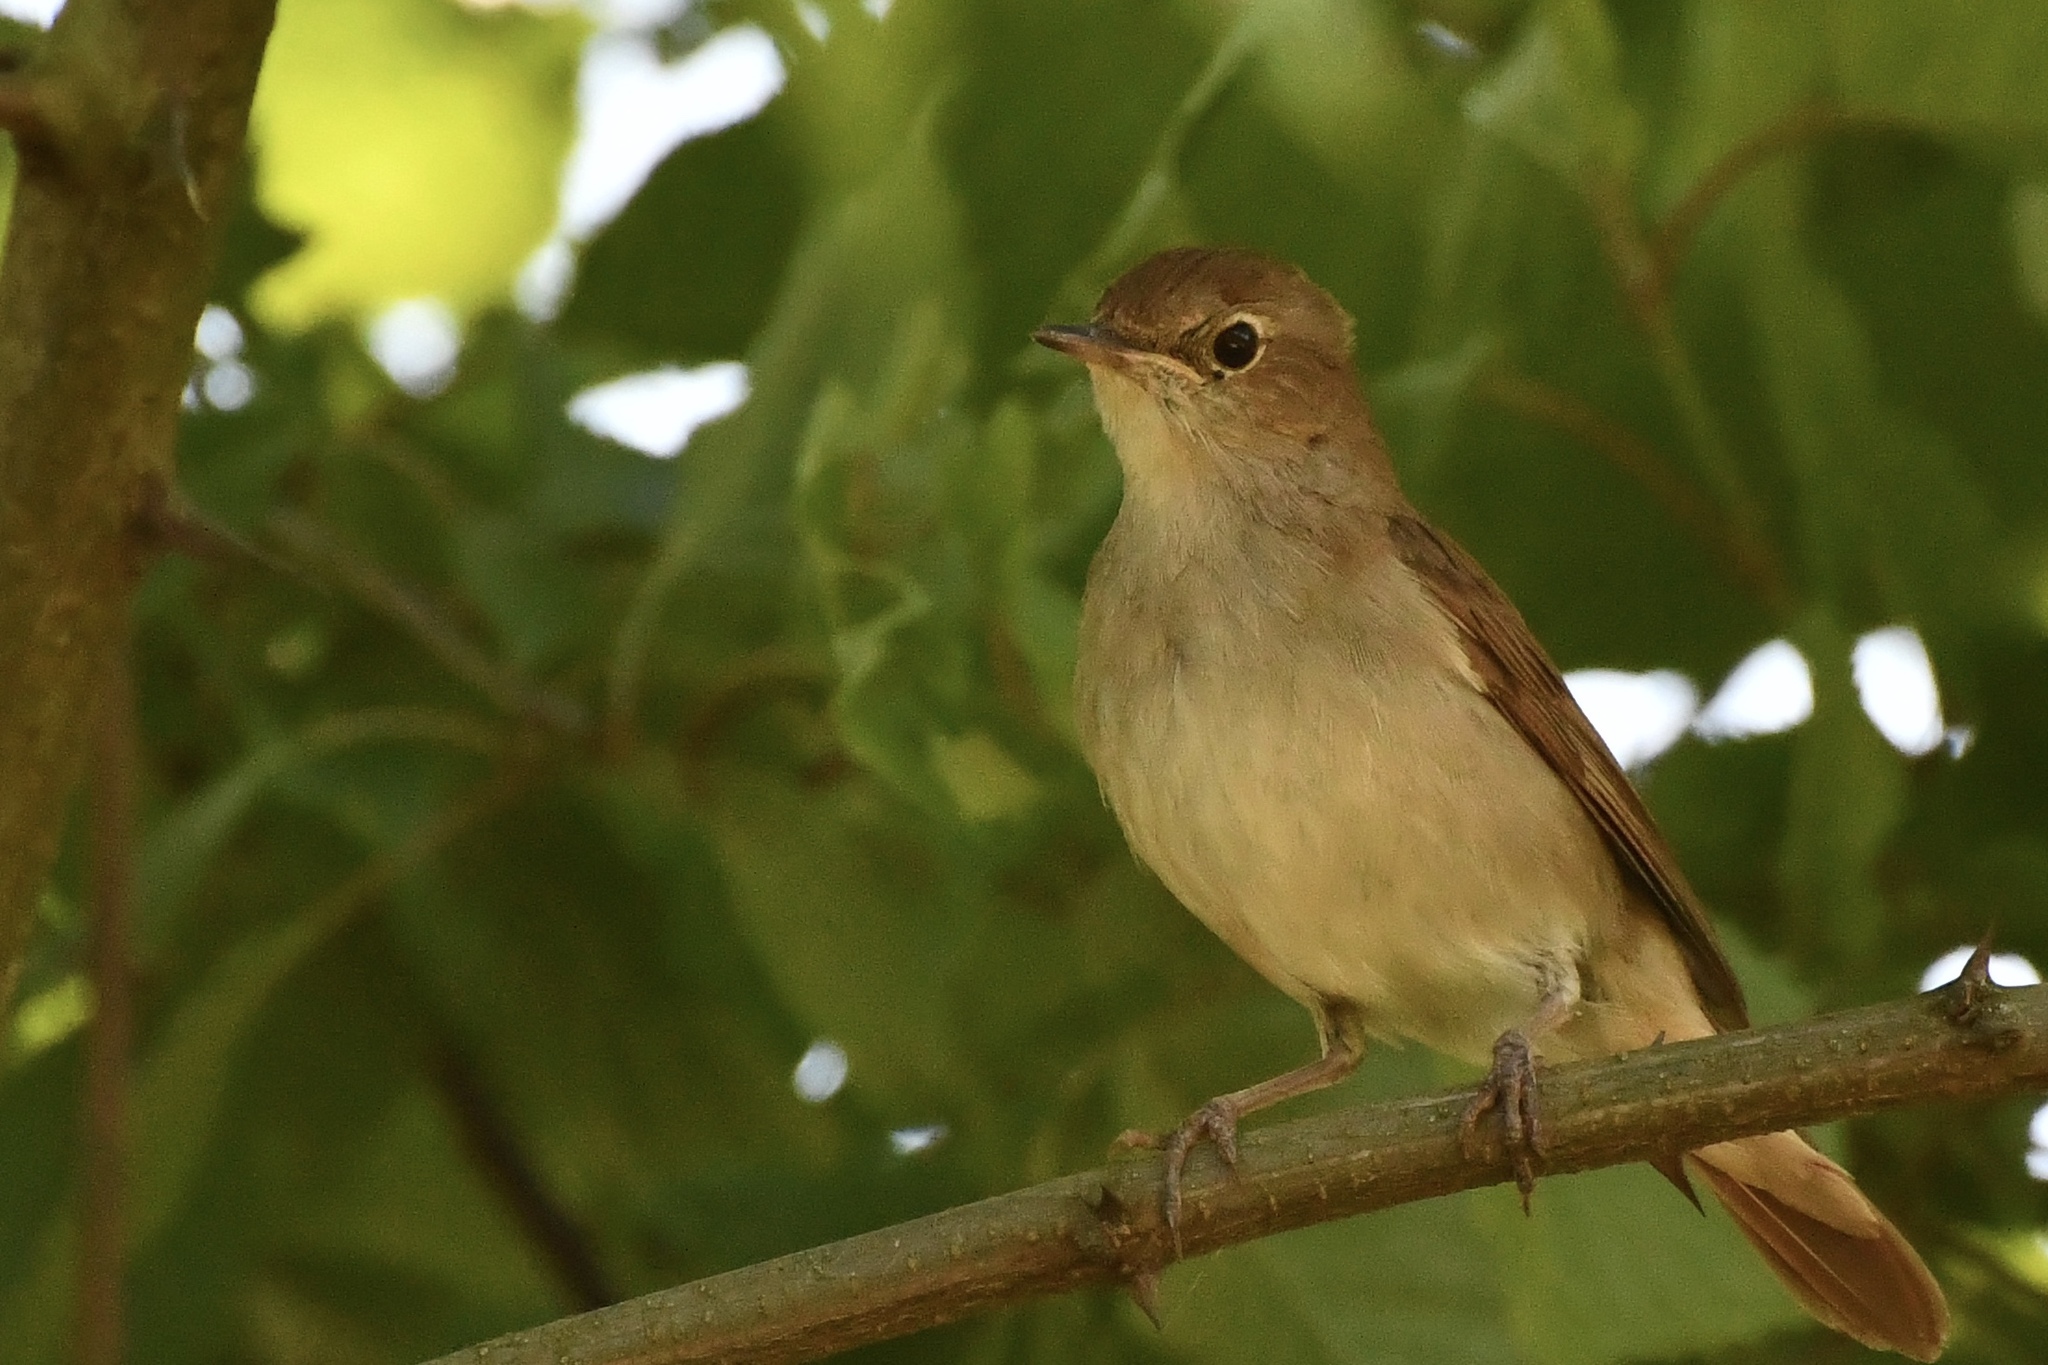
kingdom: Animalia
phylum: Chordata
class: Aves
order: Passeriformes
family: Muscicapidae
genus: Luscinia
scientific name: Luscinia megarhynchos
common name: Common nightingale
